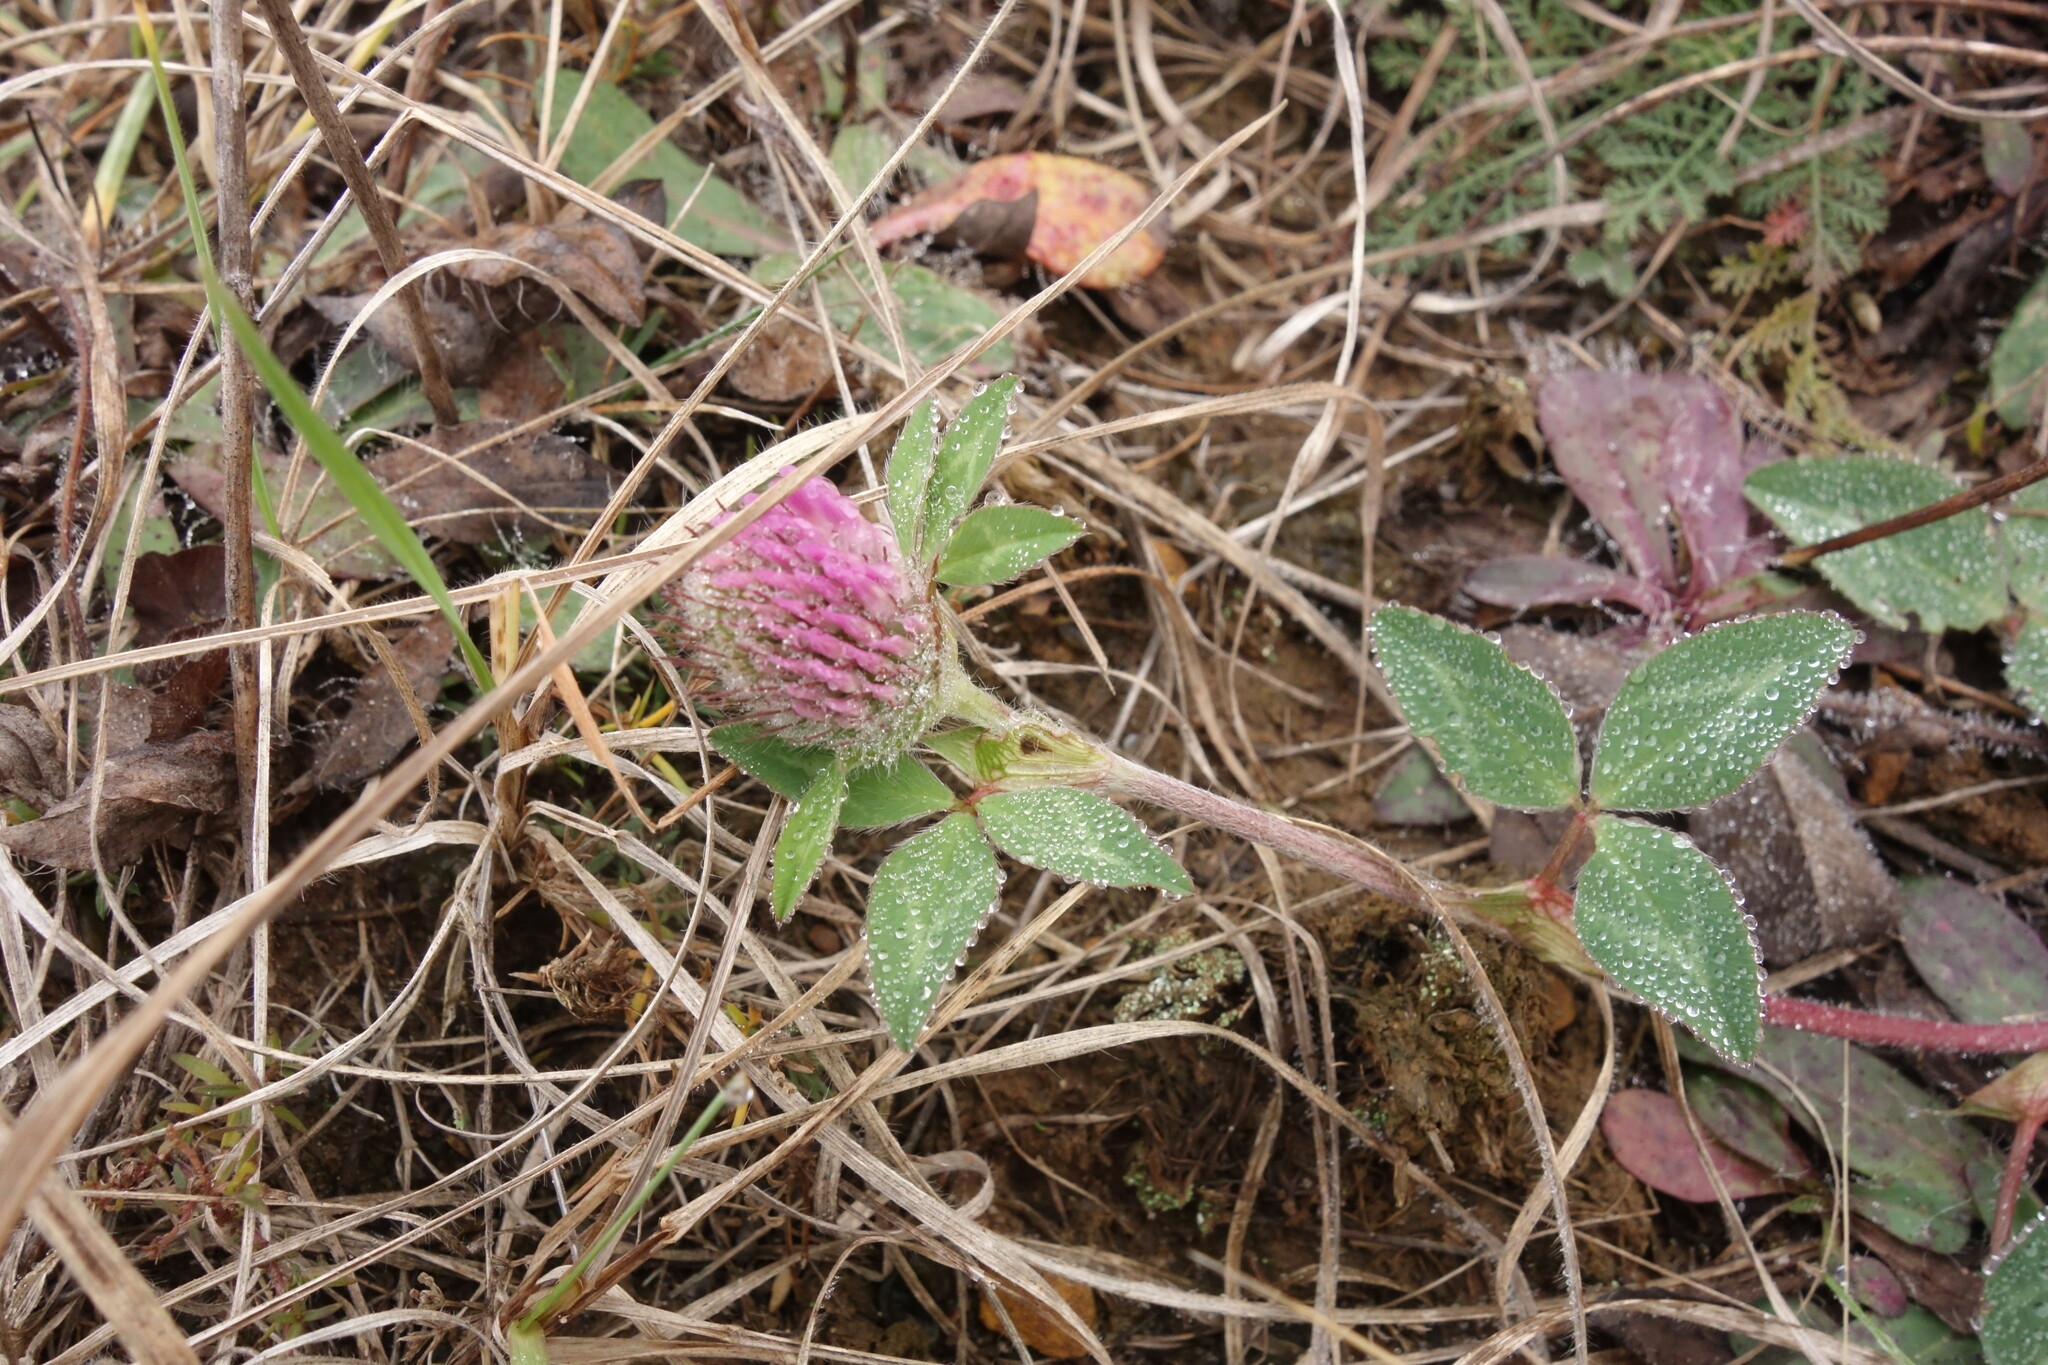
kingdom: Plantae
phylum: Tracheophyta
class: Magnoliopsida
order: Fabales
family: Fabaceae
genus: Trifolium
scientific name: Trifolium pratense
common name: Red clover
